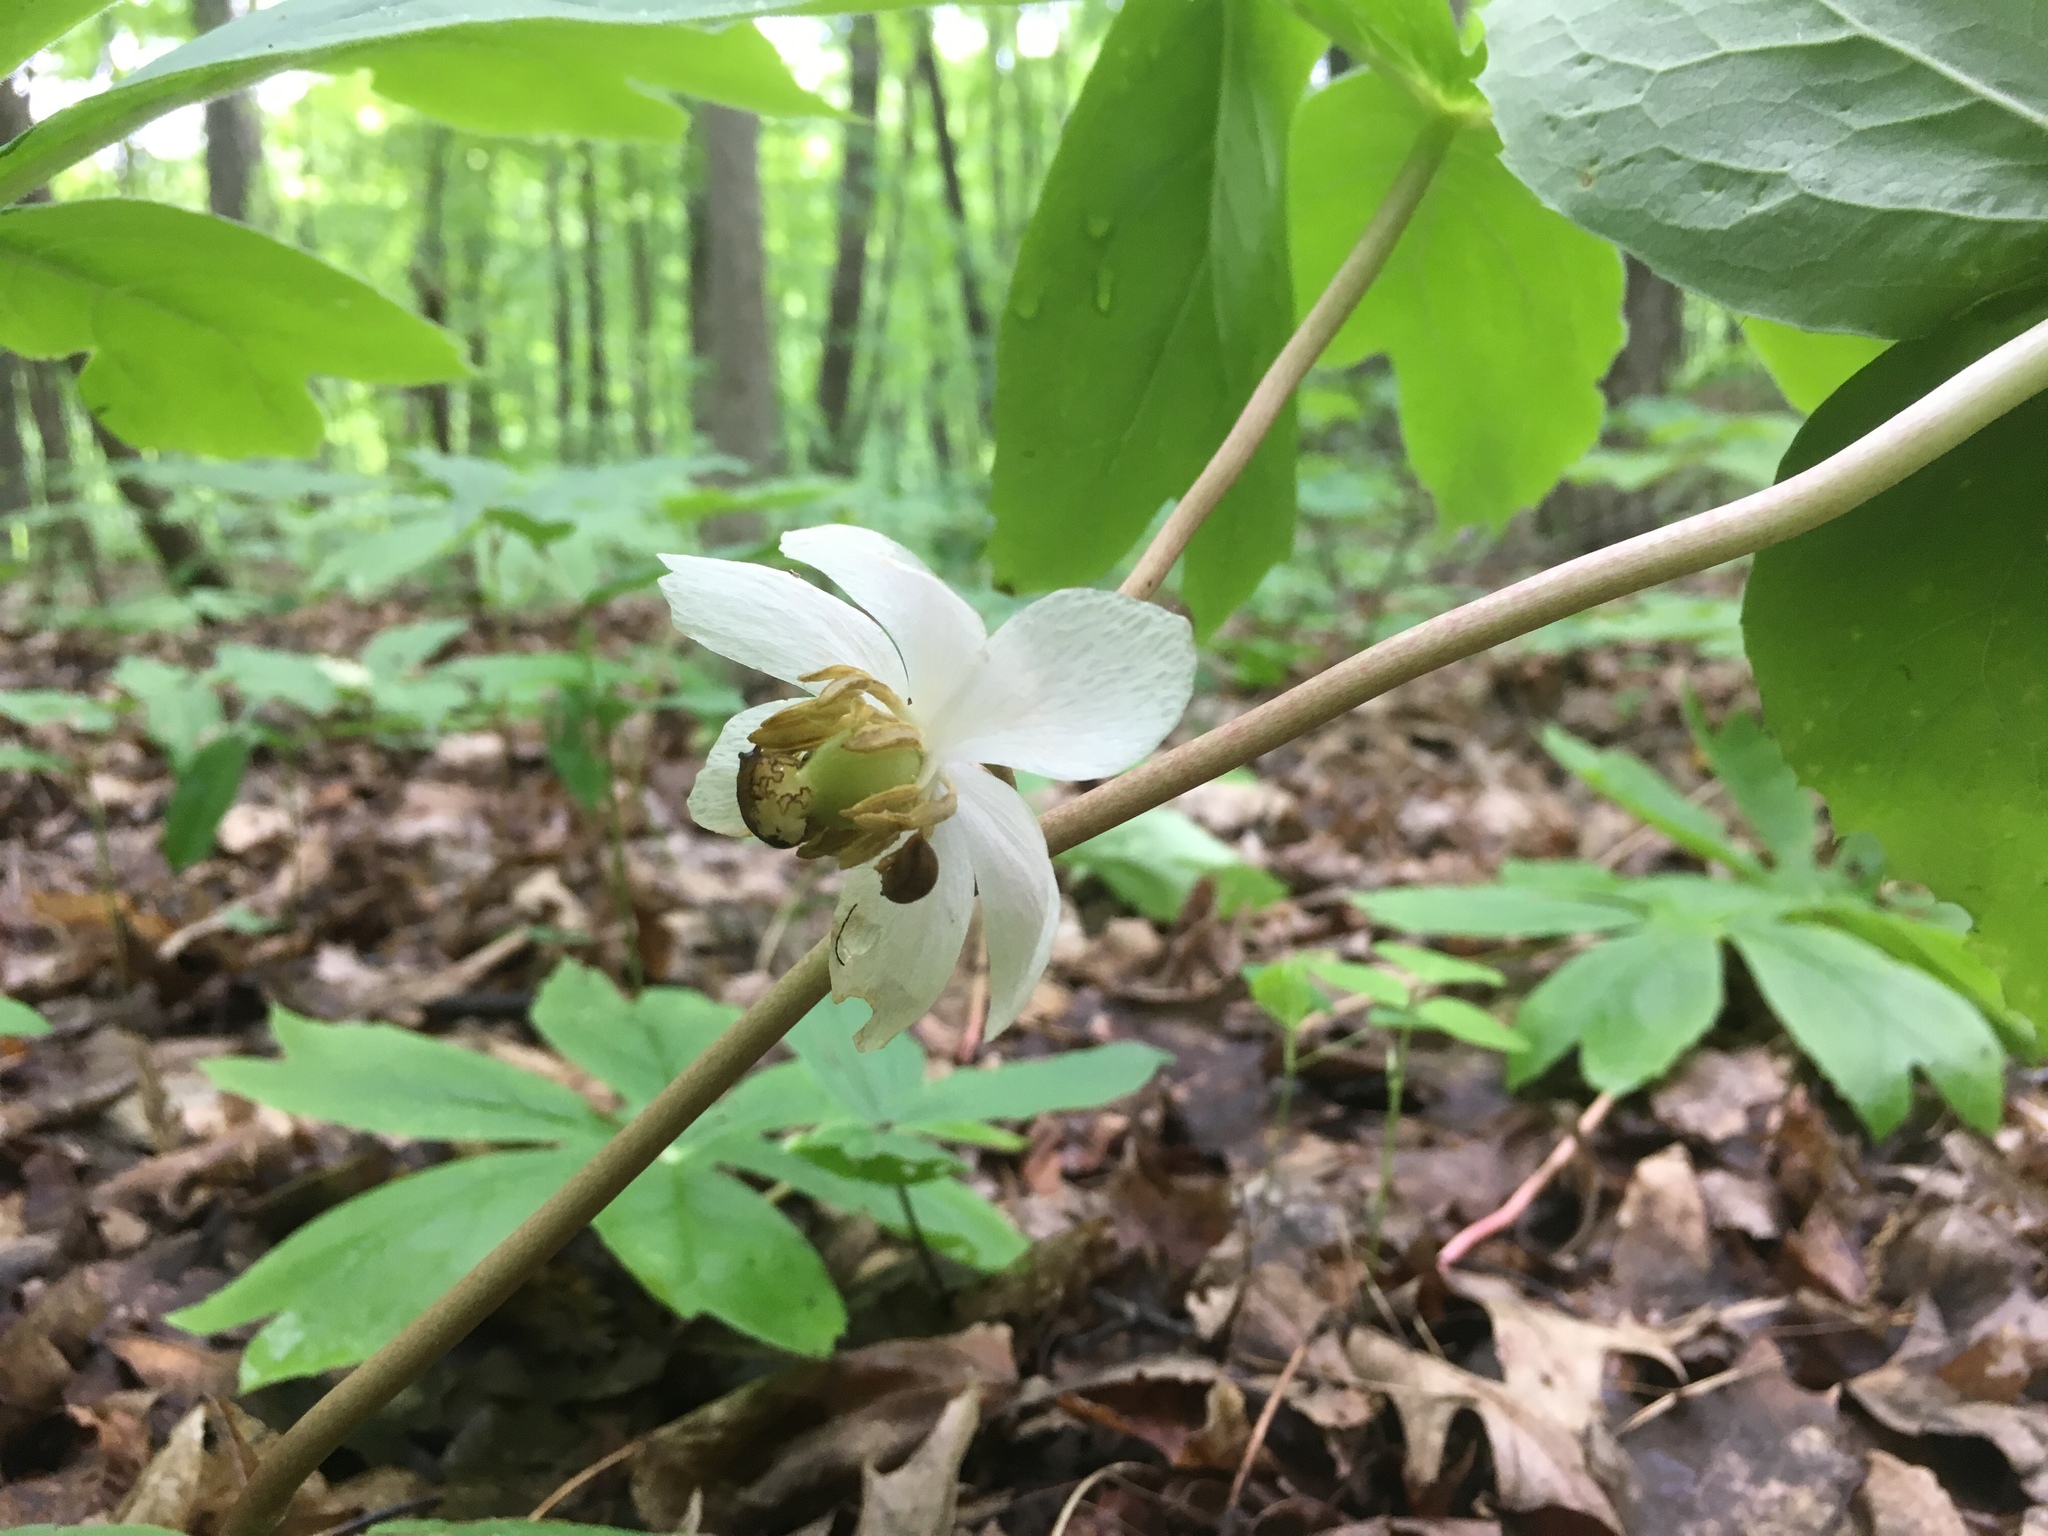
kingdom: Plantae
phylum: Tracheophyta
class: Magnoliopsida
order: Ranunculales
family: Berberidaceae
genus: Podophyllum
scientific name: Podophyllum peltatum
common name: Wild mandrake
